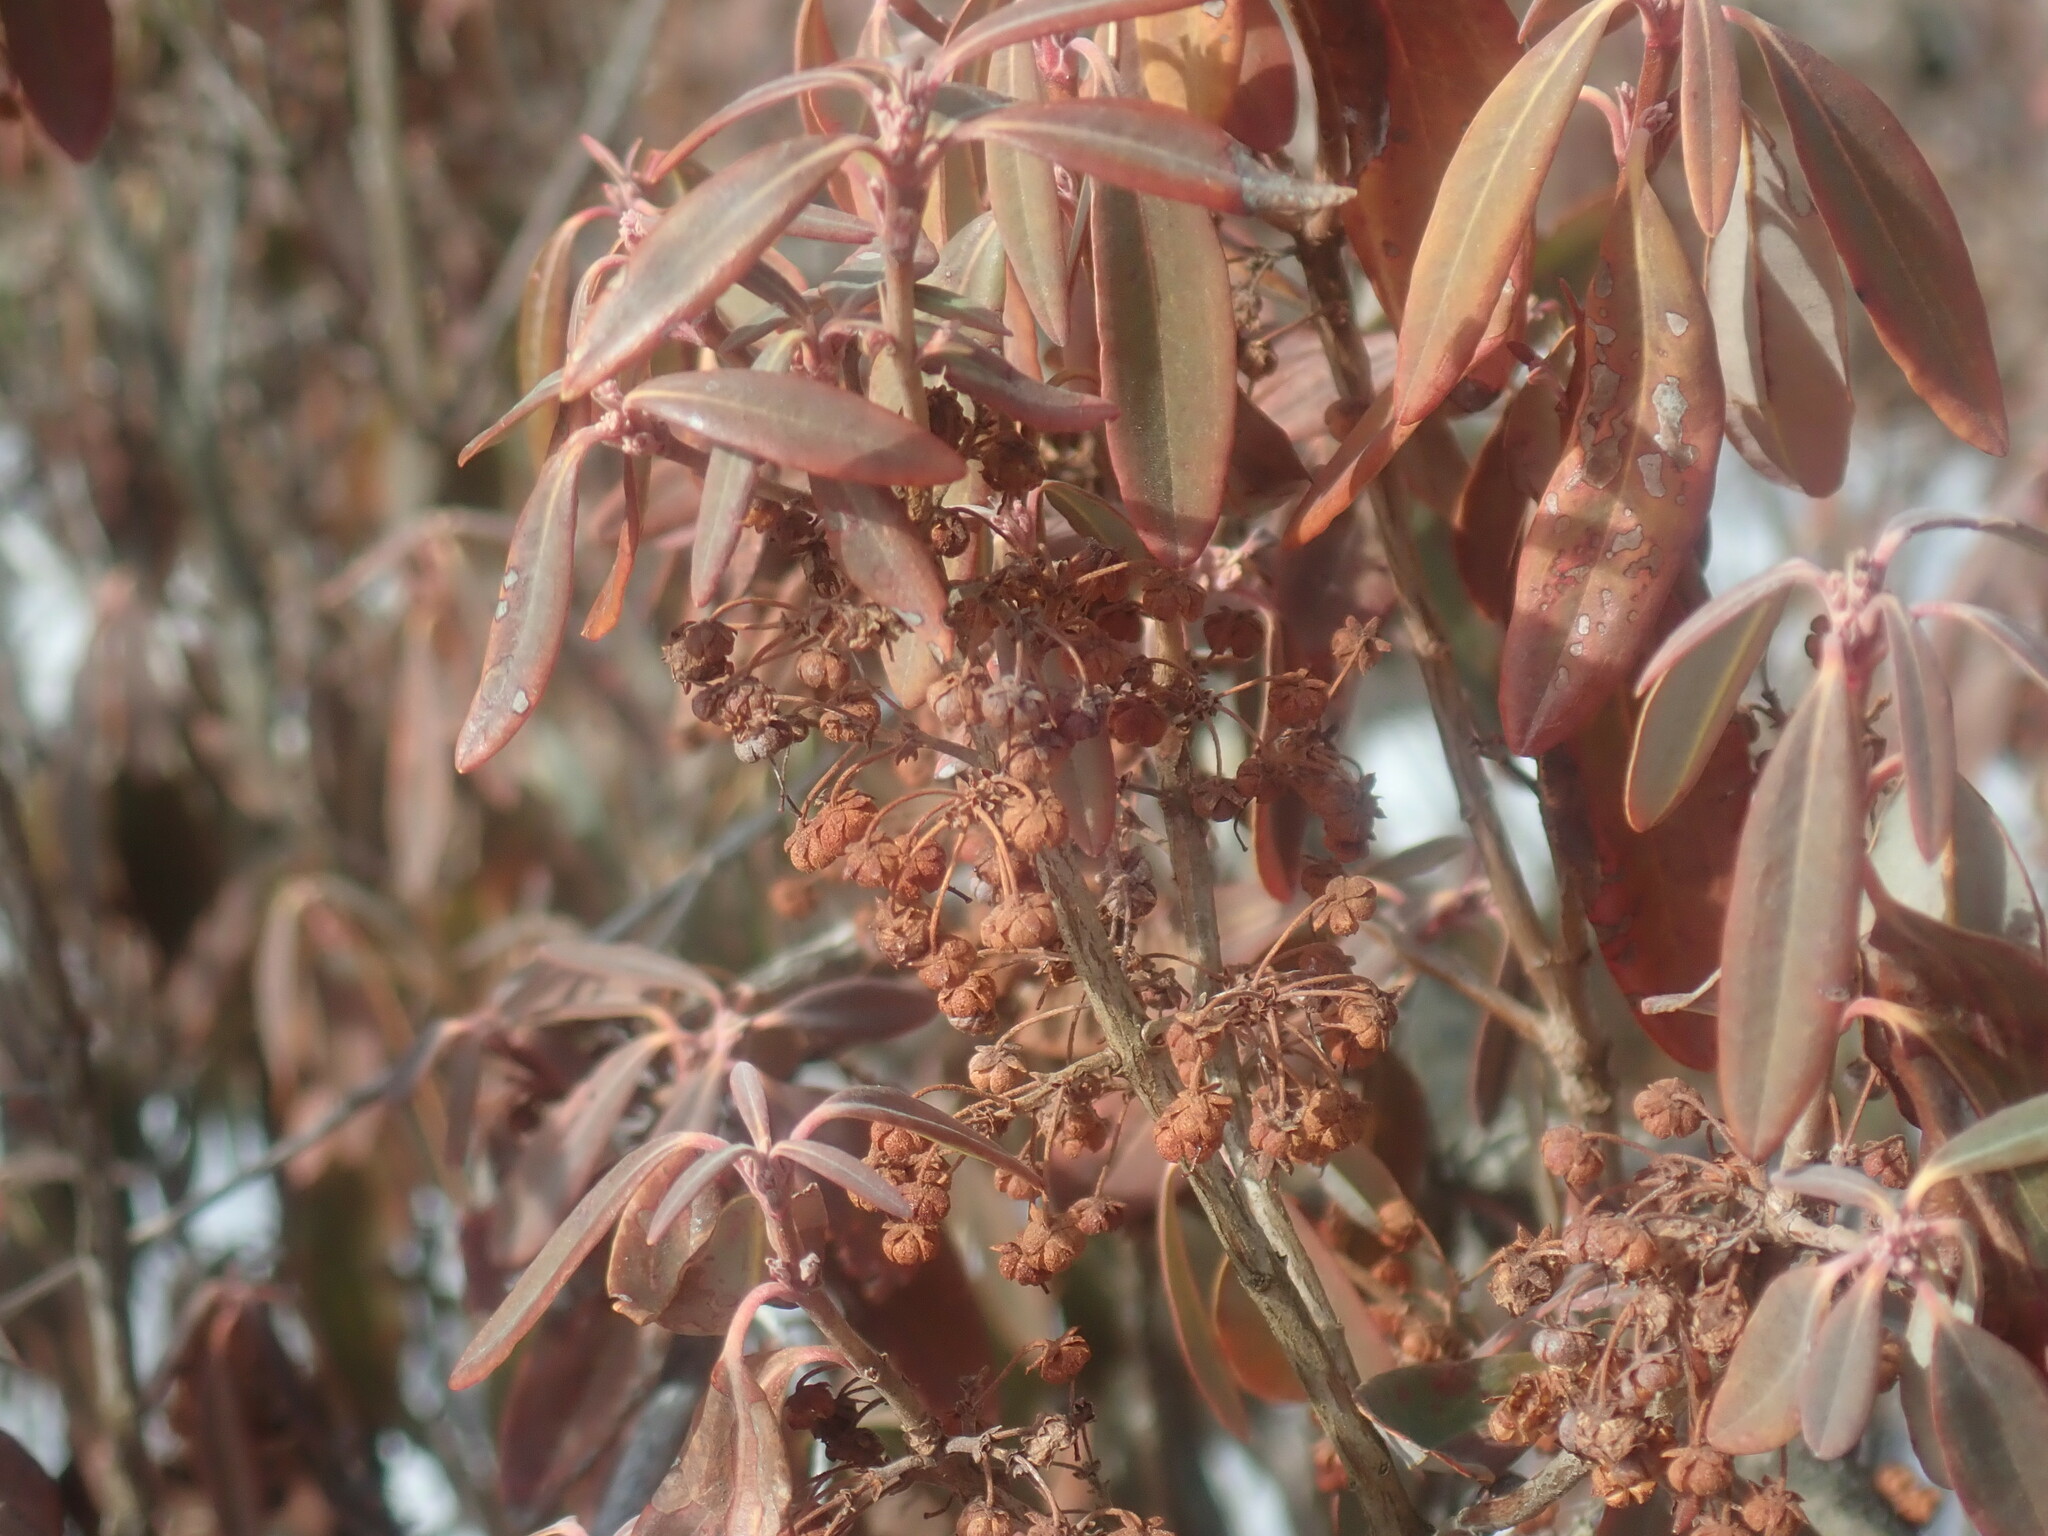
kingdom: Plantae
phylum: Tracheophyta
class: Magnoliopsida
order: Ericales
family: Ericaceae
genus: Kalmia
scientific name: Kalmia angustifolia
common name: Sheep-laurel
